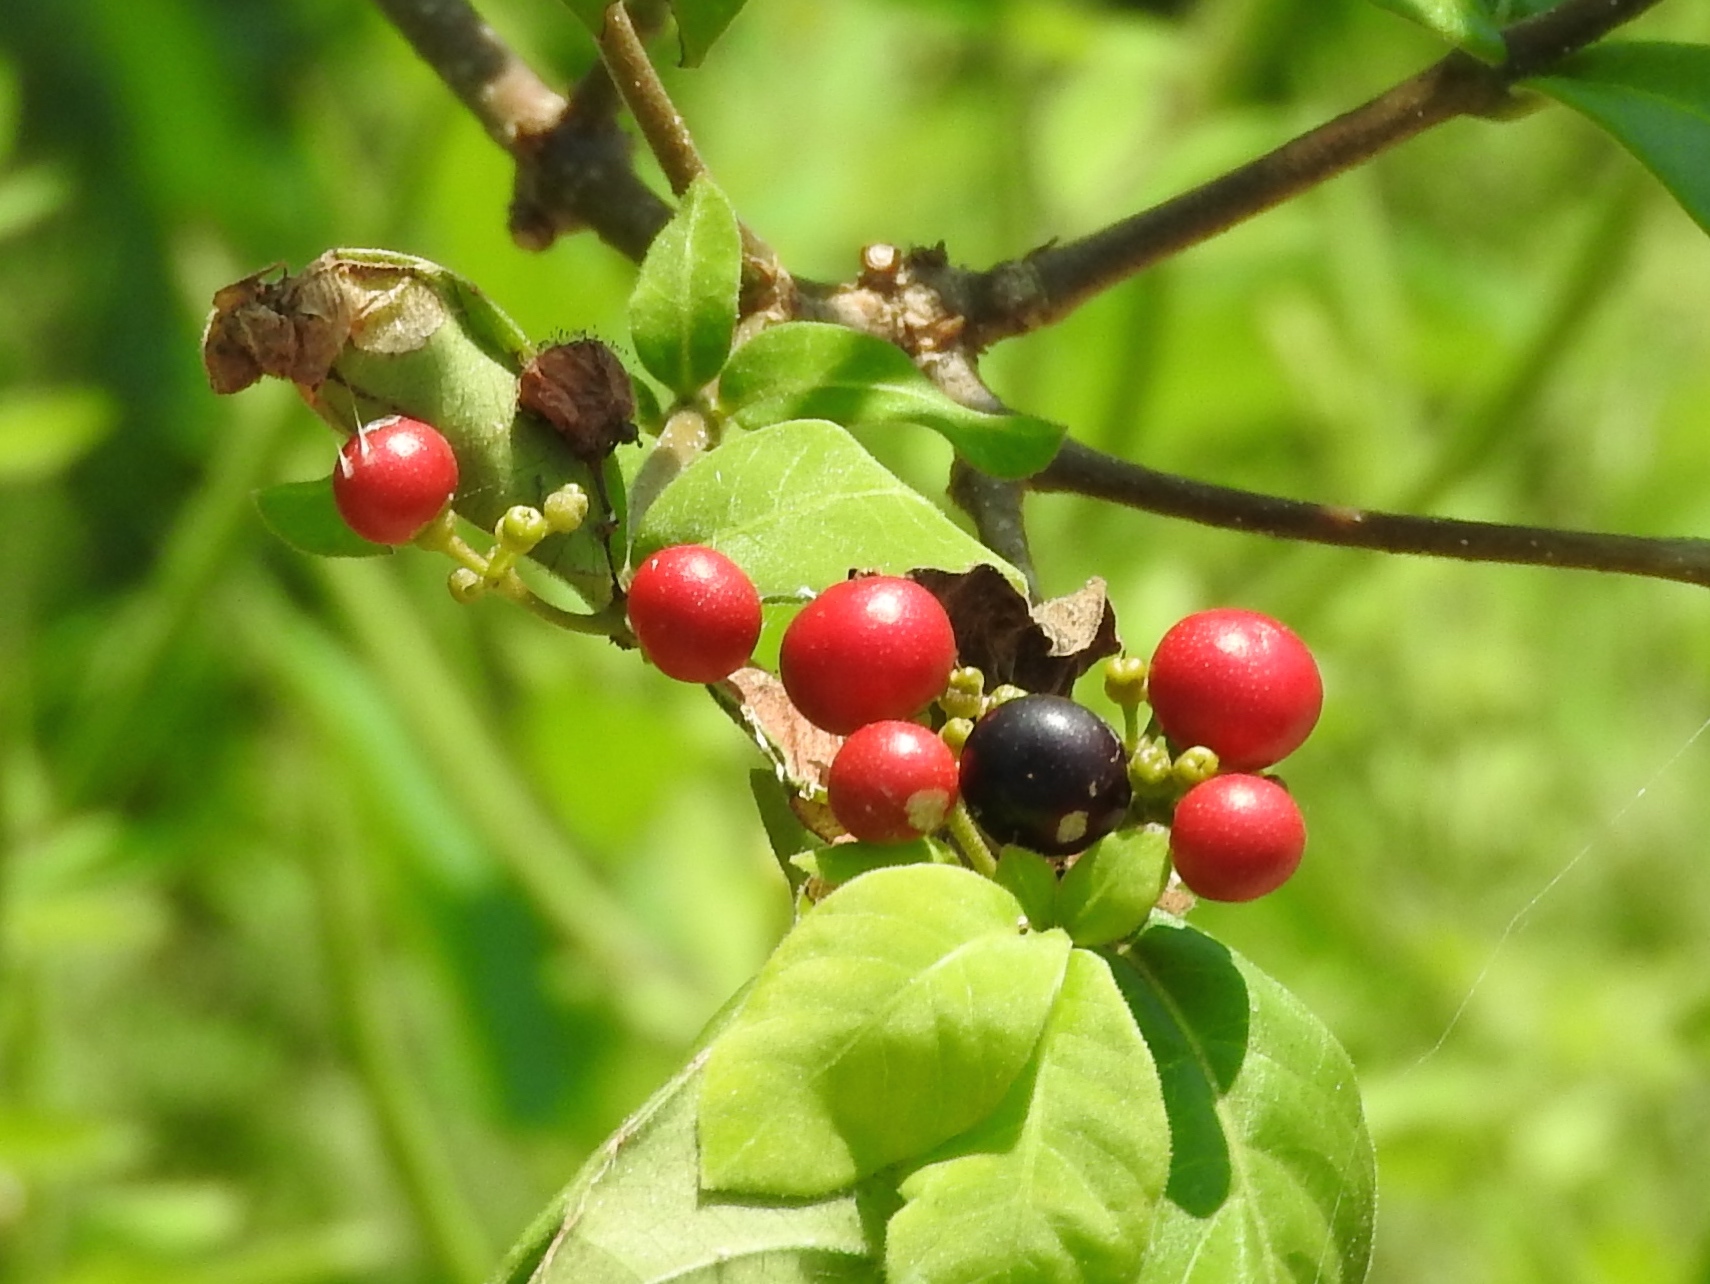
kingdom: Plantae
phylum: Tracheophyta
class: Magnoliopsida
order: Gentianales
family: Apocynaceae
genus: Rauvolfia
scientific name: Rauvolfia tetraphylla
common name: Four-leaf devil-pepper
